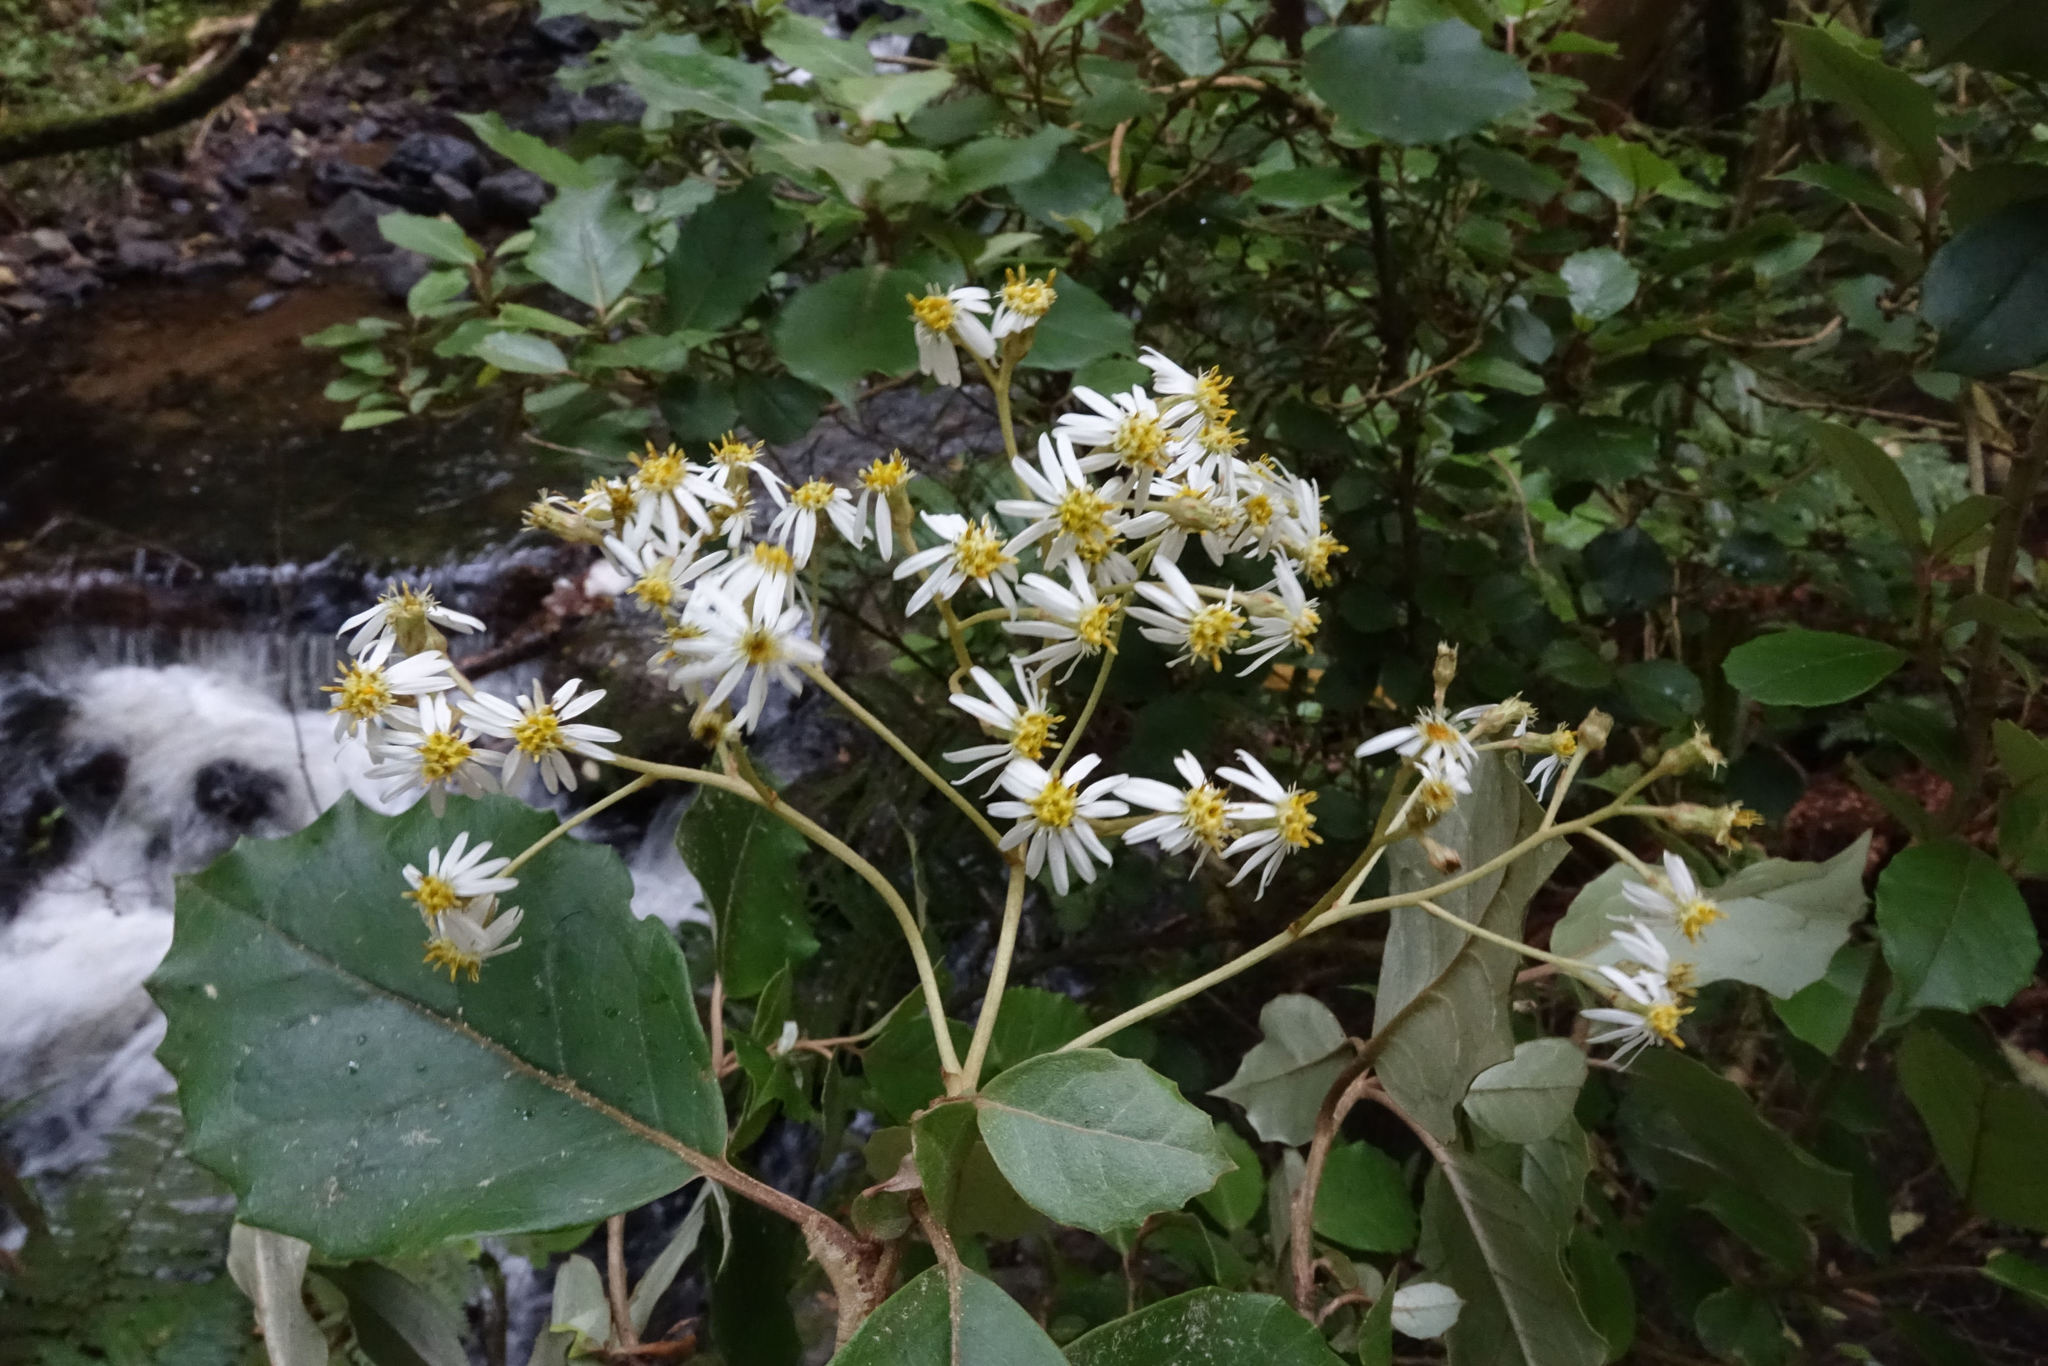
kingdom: Plantae
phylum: Tracheophyta
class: Magnoliopsida
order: Asterales
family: Asteraceae
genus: Olearia
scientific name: Olearia arborescens
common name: Glossy tree daisy
